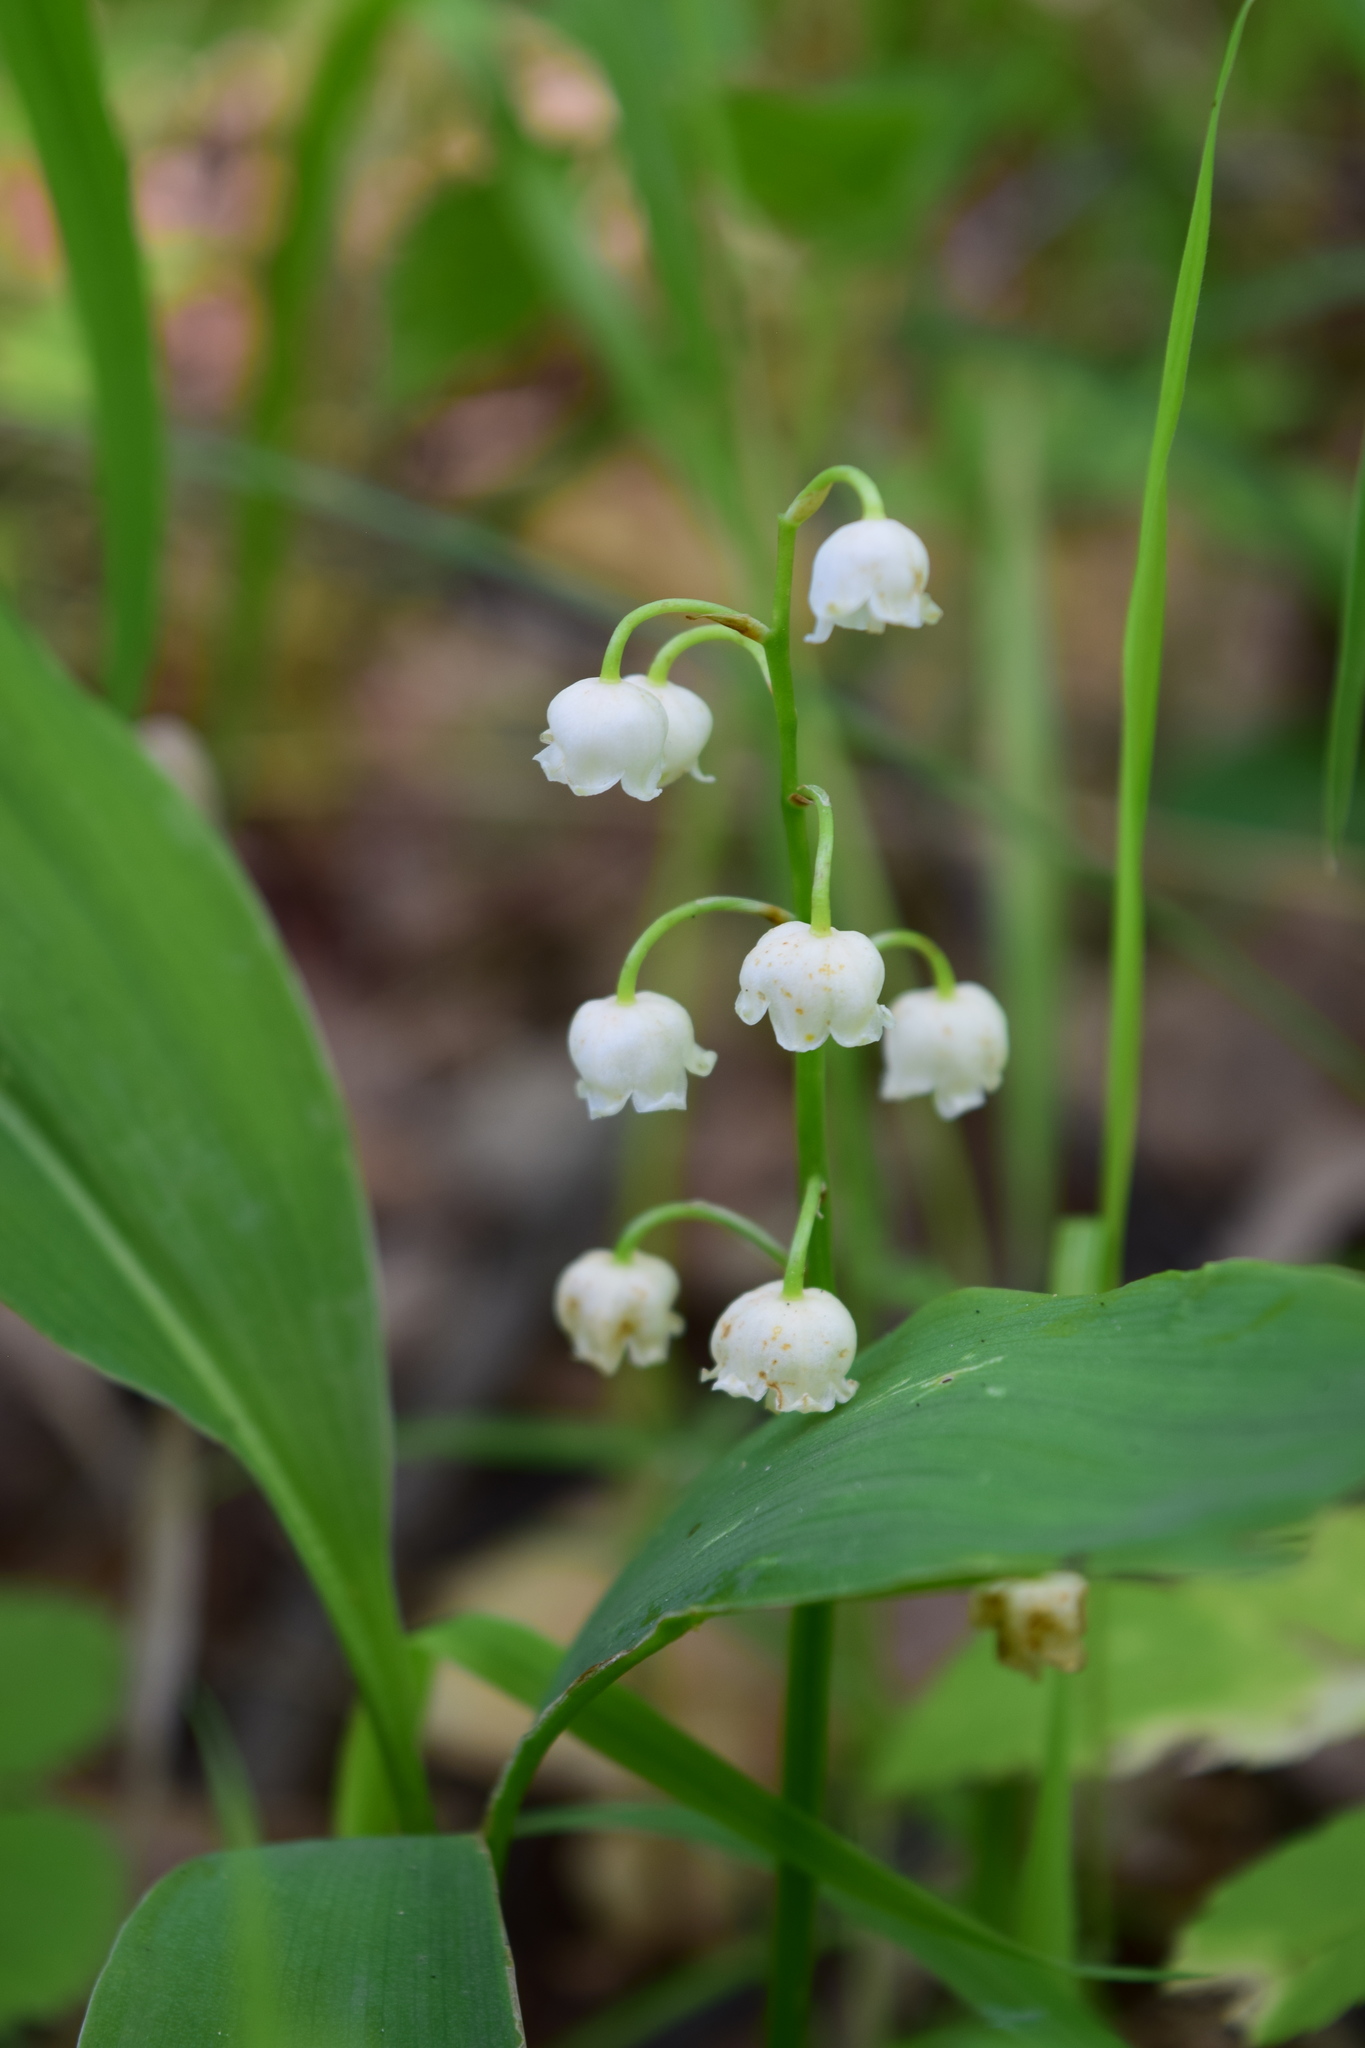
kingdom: Plantae
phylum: Tracheophyta
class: Liliopsida
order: Asparagales
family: Asparagaceae
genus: Convallaria
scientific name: Convallaria majalis
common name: Lily-of-the-valley
